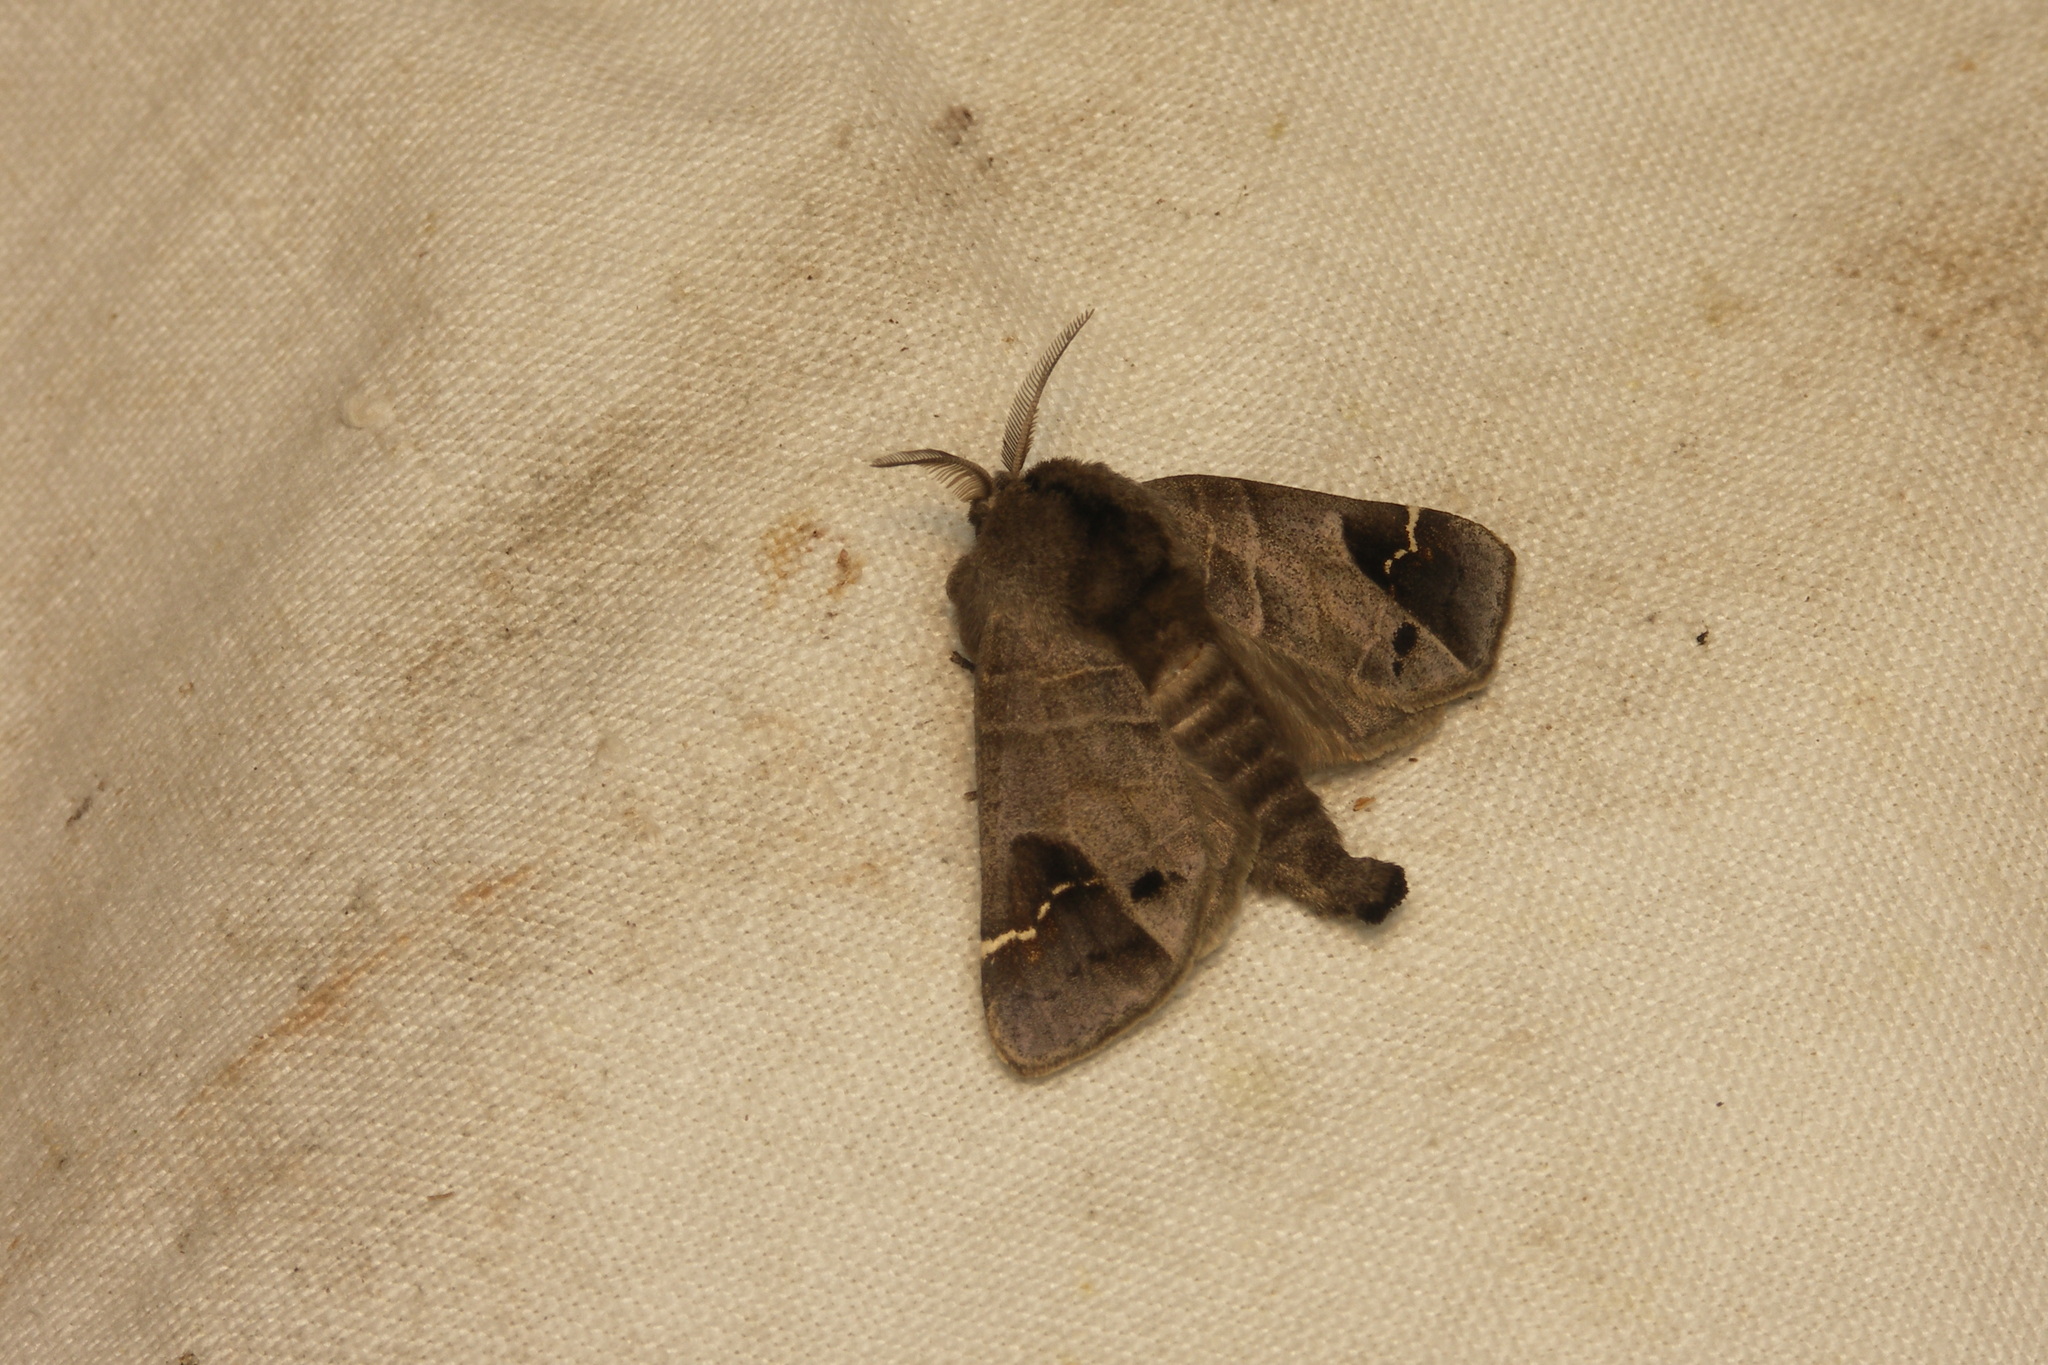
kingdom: Animalia
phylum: Arthropoda
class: Insecta
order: Lepidoptera
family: Notodontidae
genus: Clostera
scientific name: Clostera anachoreta
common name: Scarce chocolate-tip
